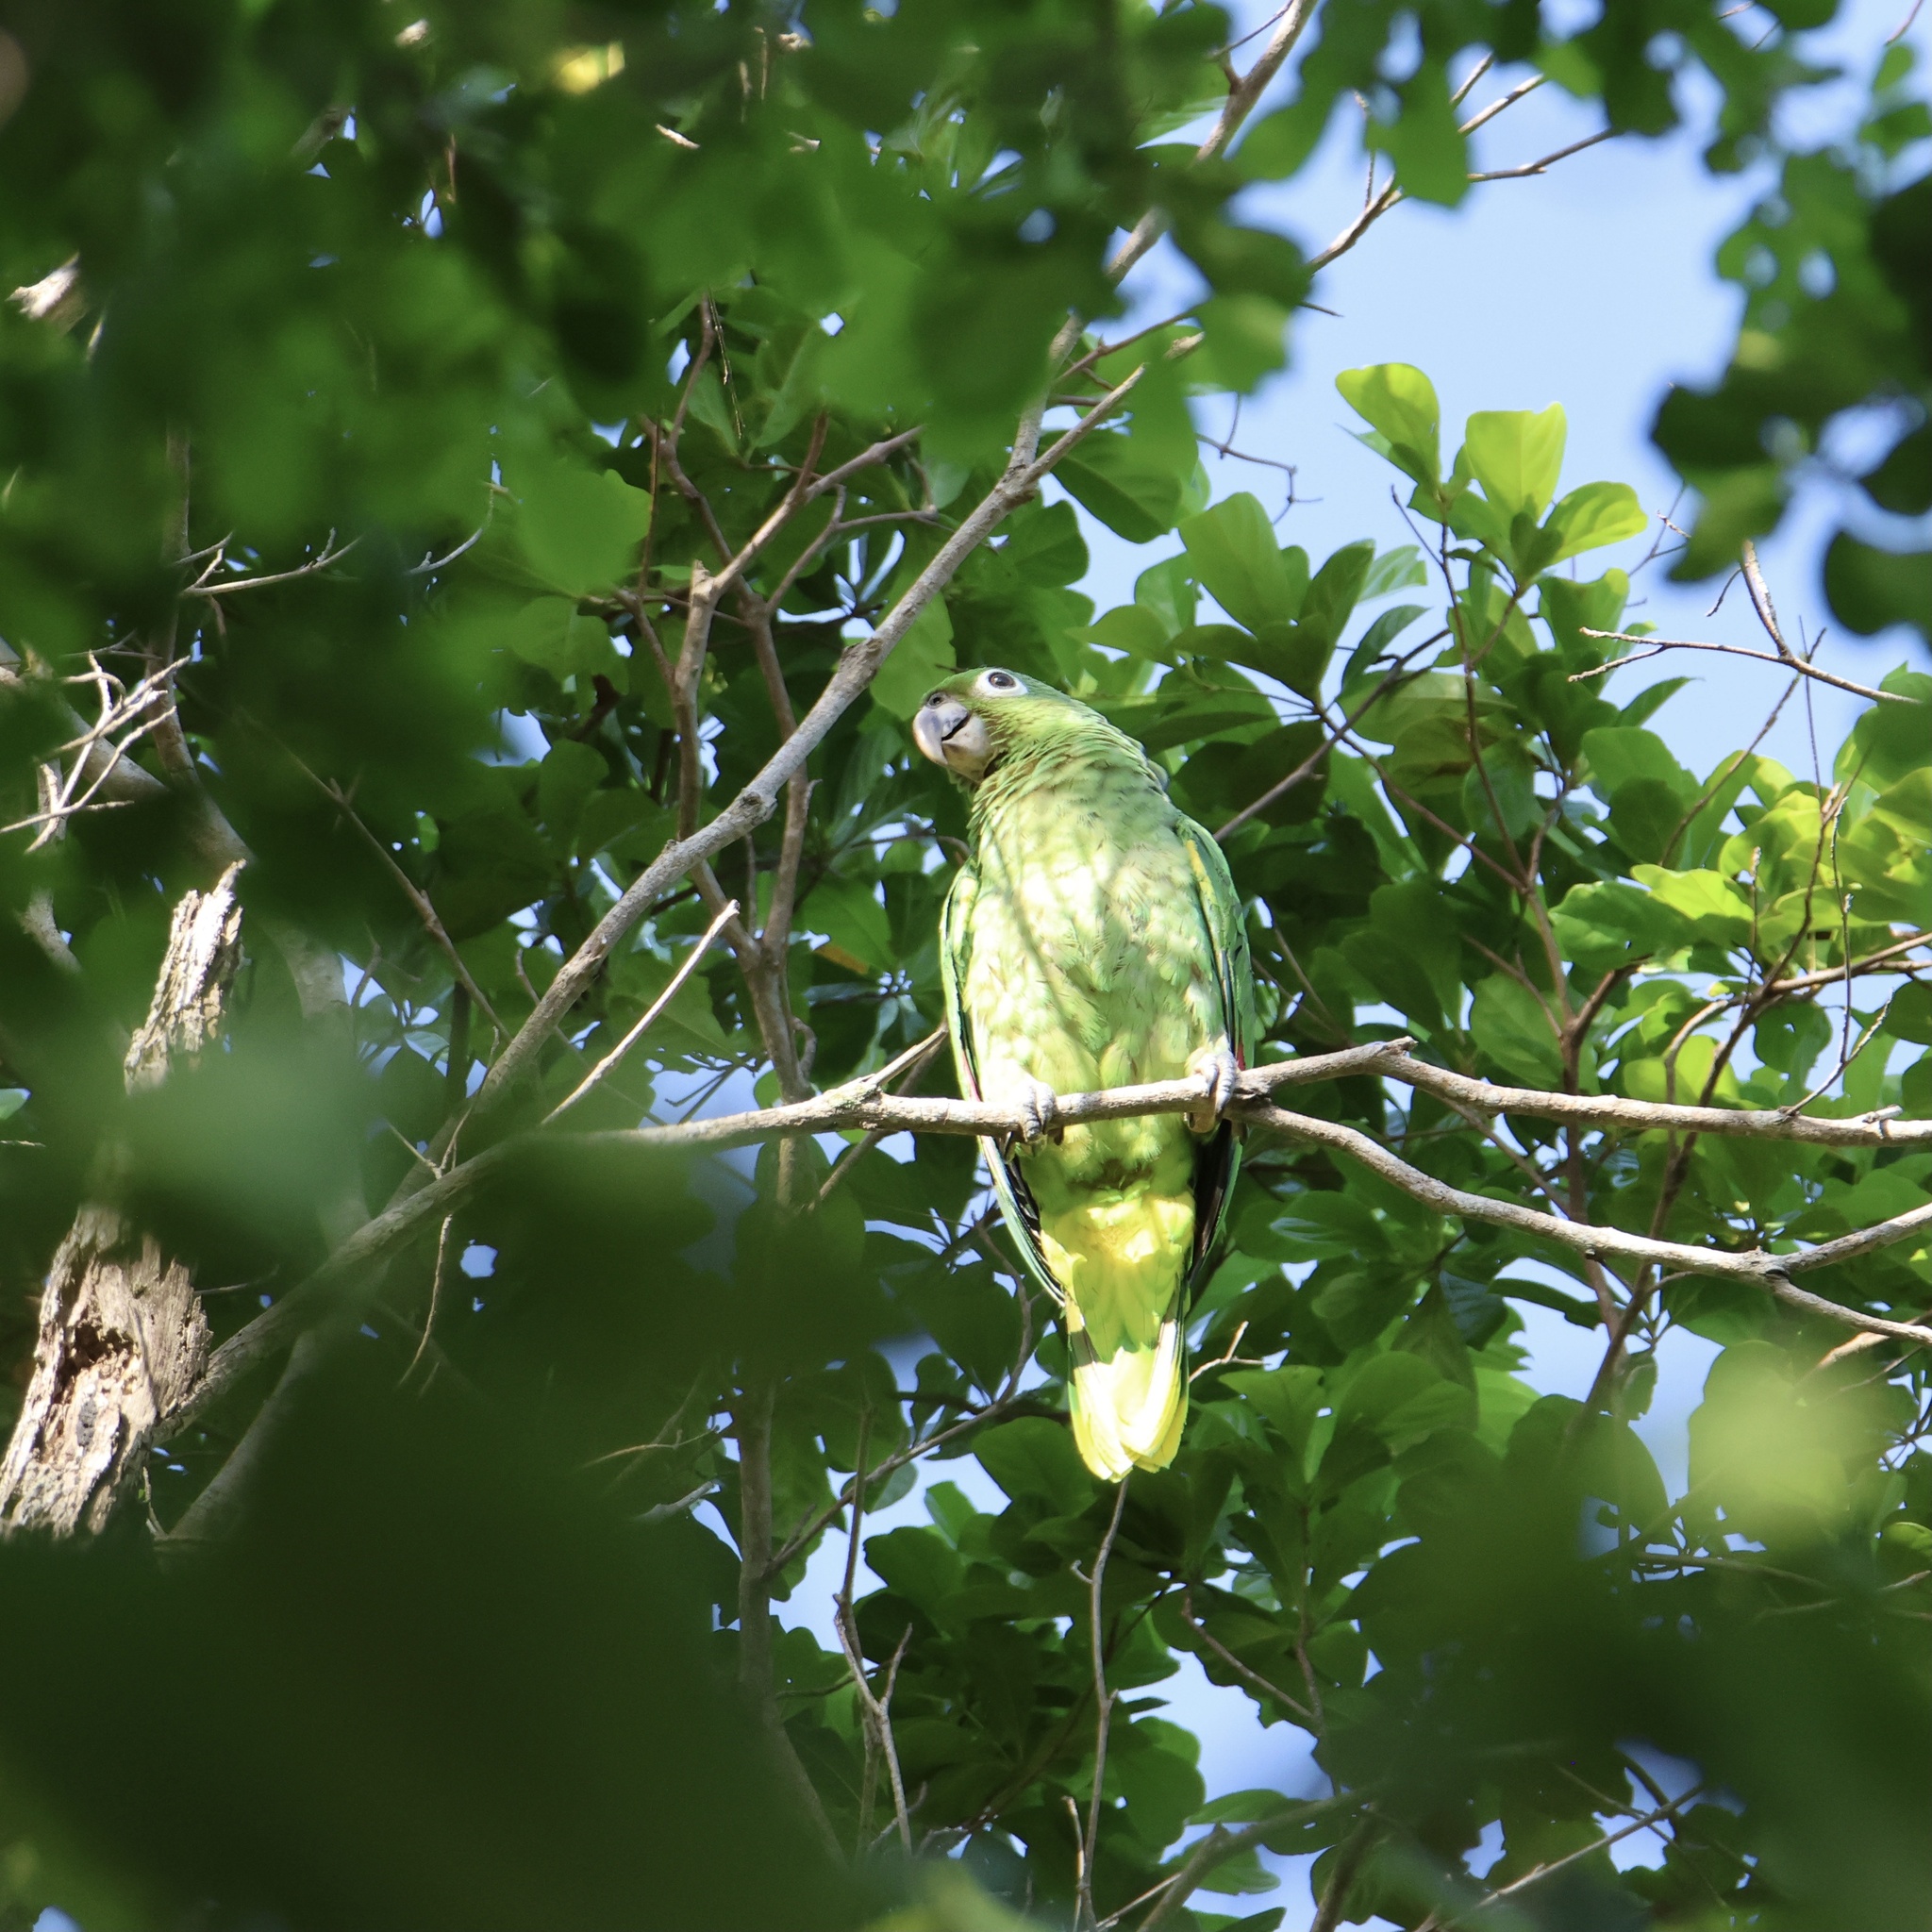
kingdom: Animalia
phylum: Chordata
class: Aves
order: Psittaciformes
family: Psittacidae
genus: Amazona
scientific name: Amazona farinosa
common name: Mealy parrot
